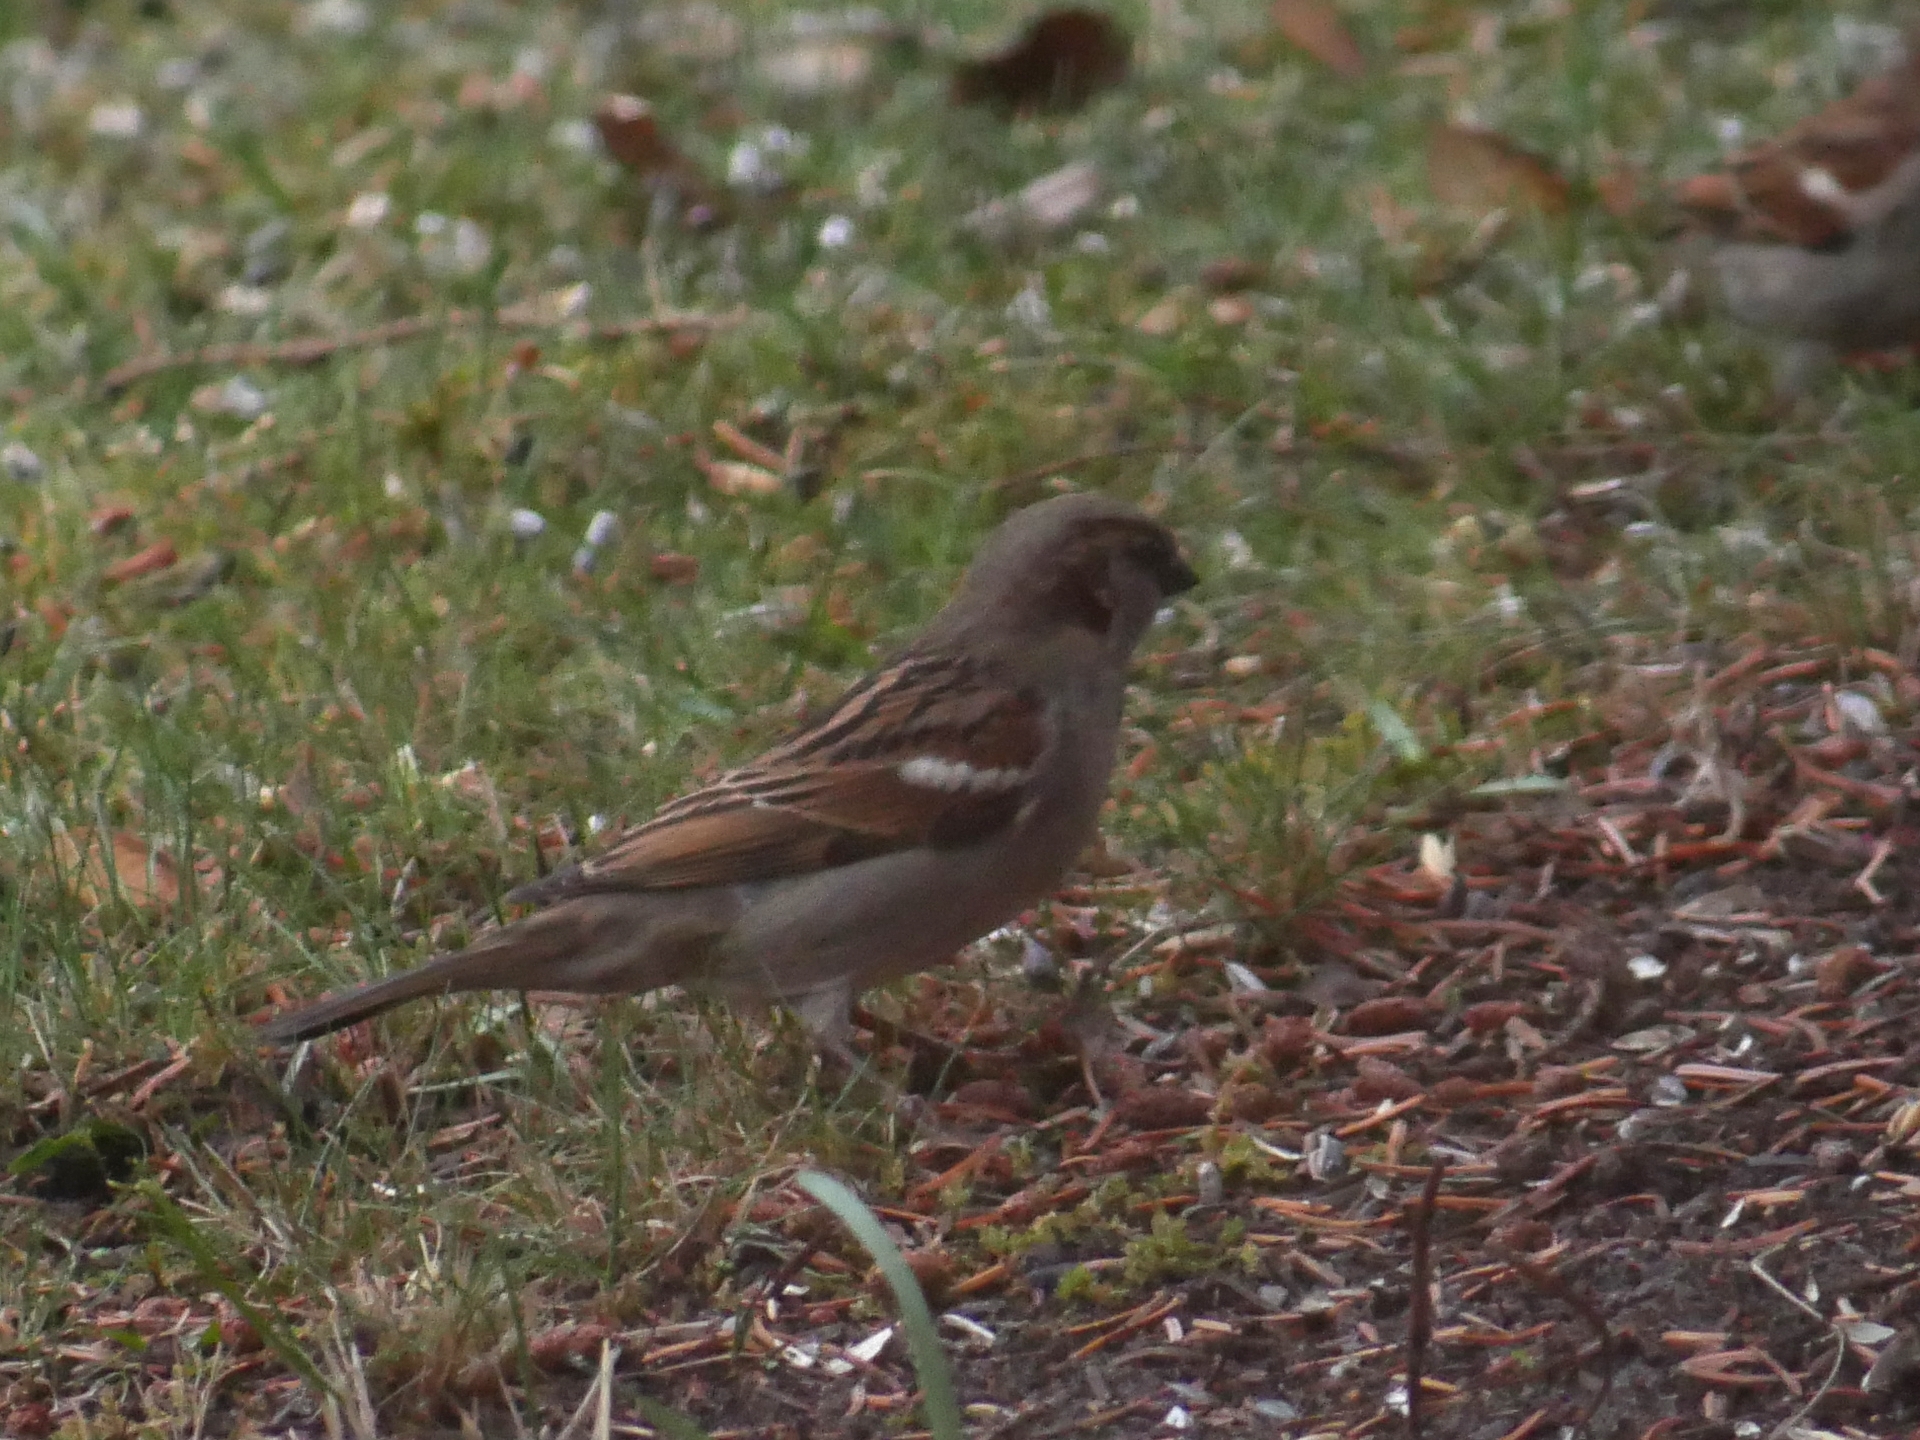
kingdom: Animalia
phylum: Chordata
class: Aves
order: Passeriformes
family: Passeridae
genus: Passer
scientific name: Passer domesticus
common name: House sparrow
